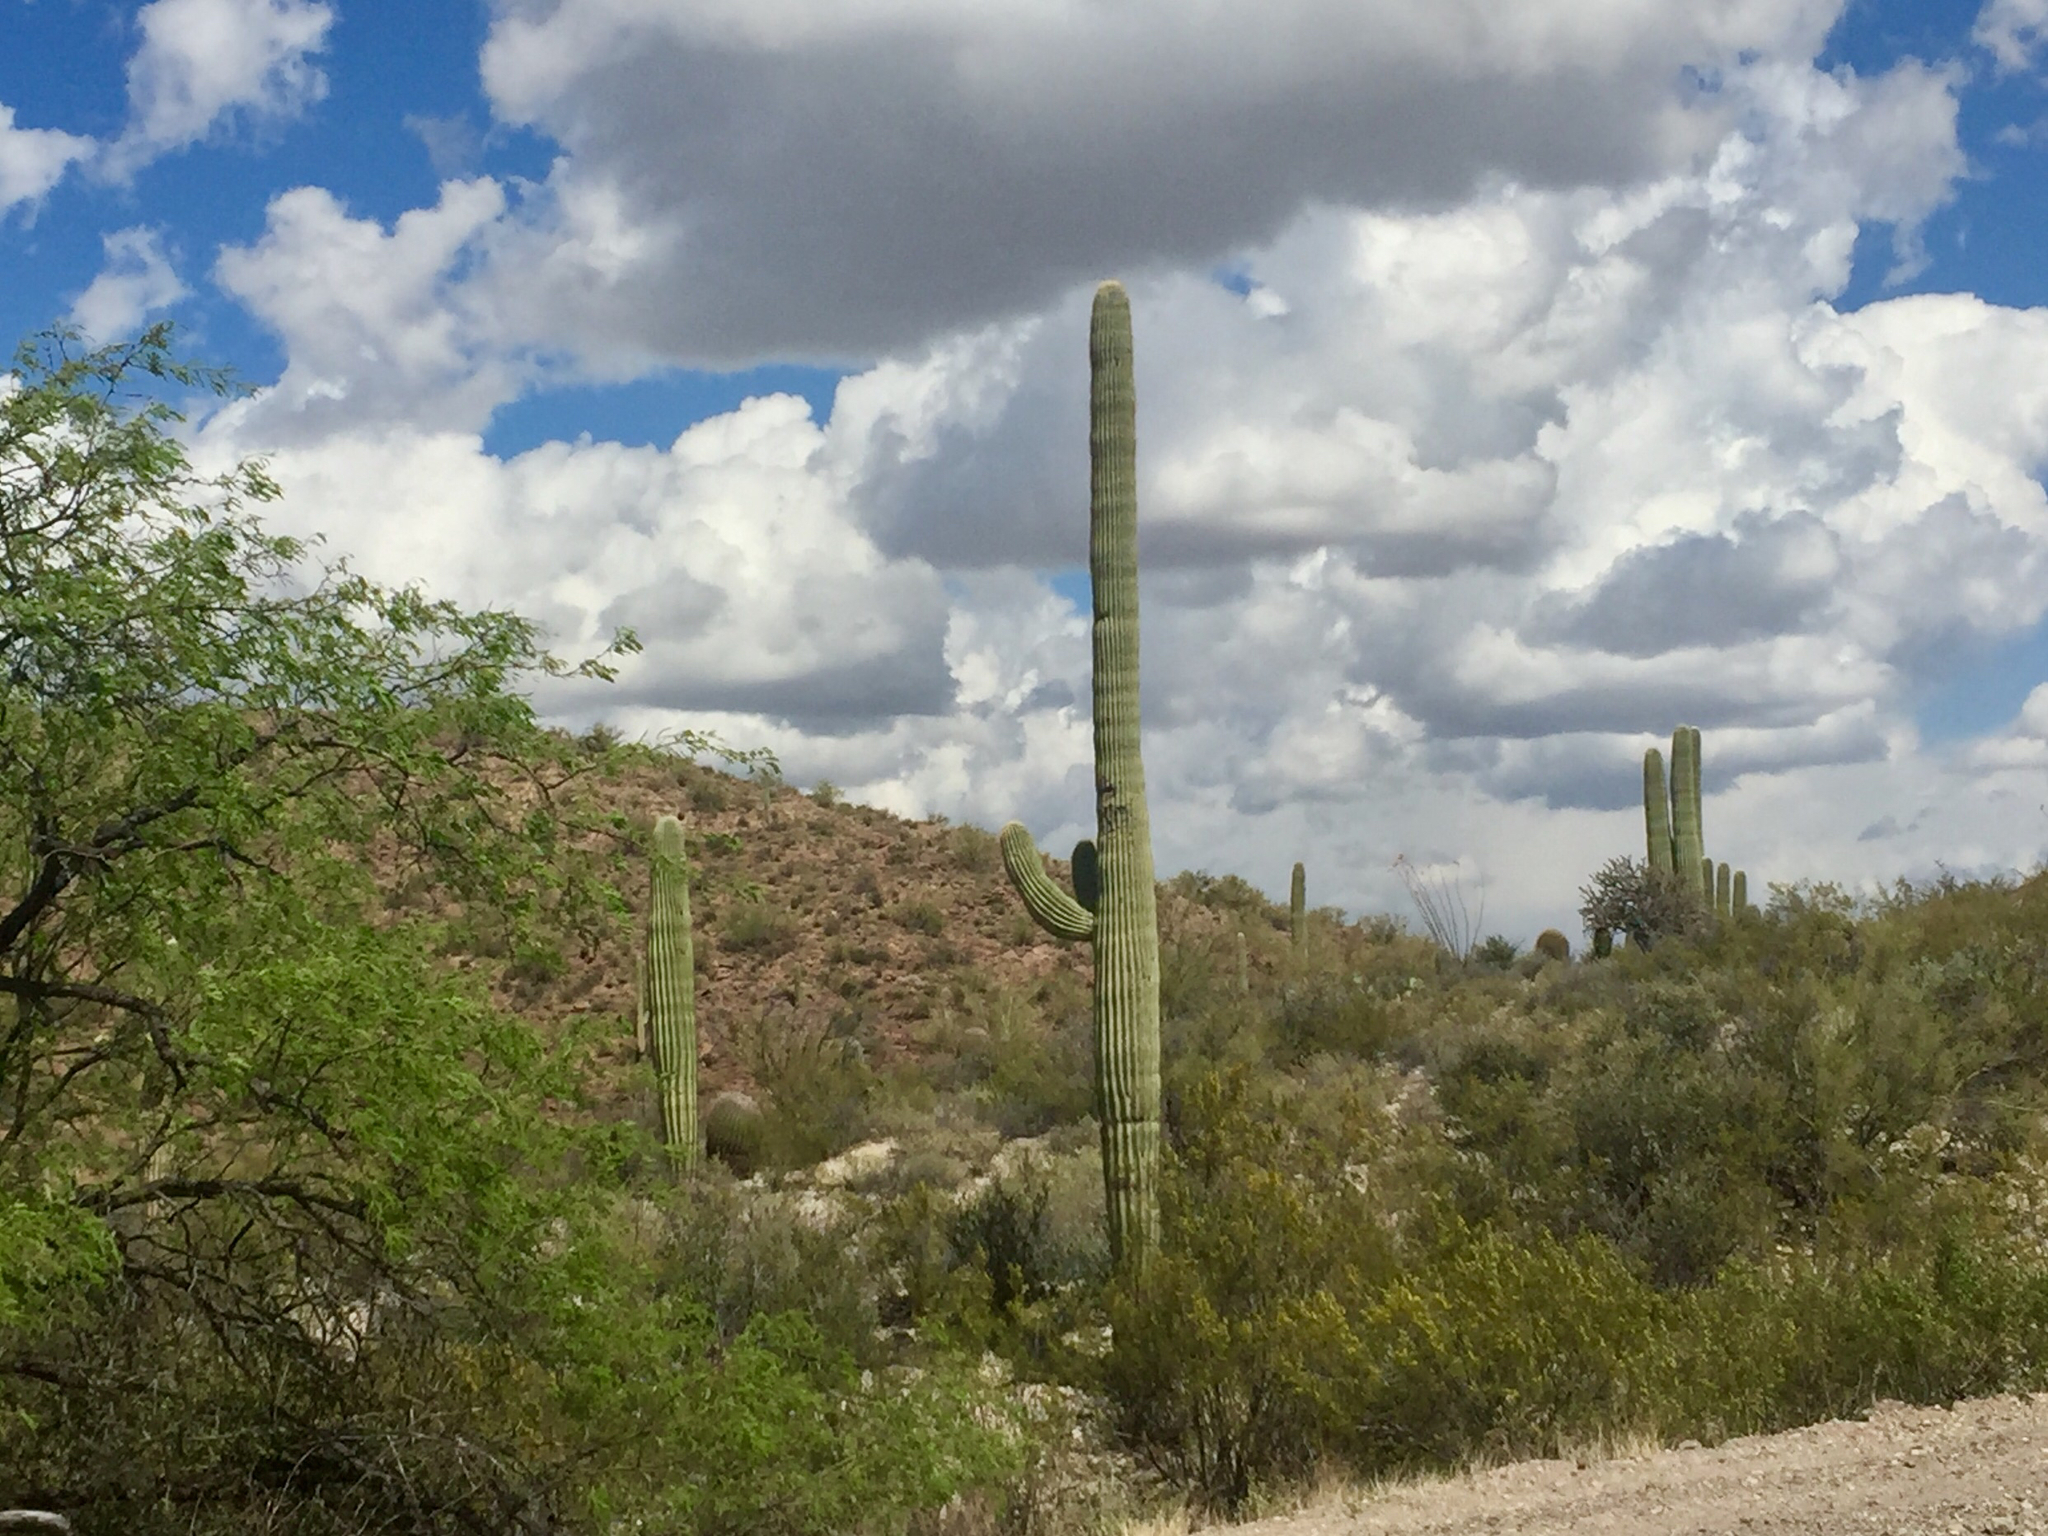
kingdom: Plantae
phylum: Tracheophyta
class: Magnoliopsida
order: Caryophyllales
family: Cactaceae
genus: Carnegiea
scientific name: Carnegiea gigantea
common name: Saguaro
